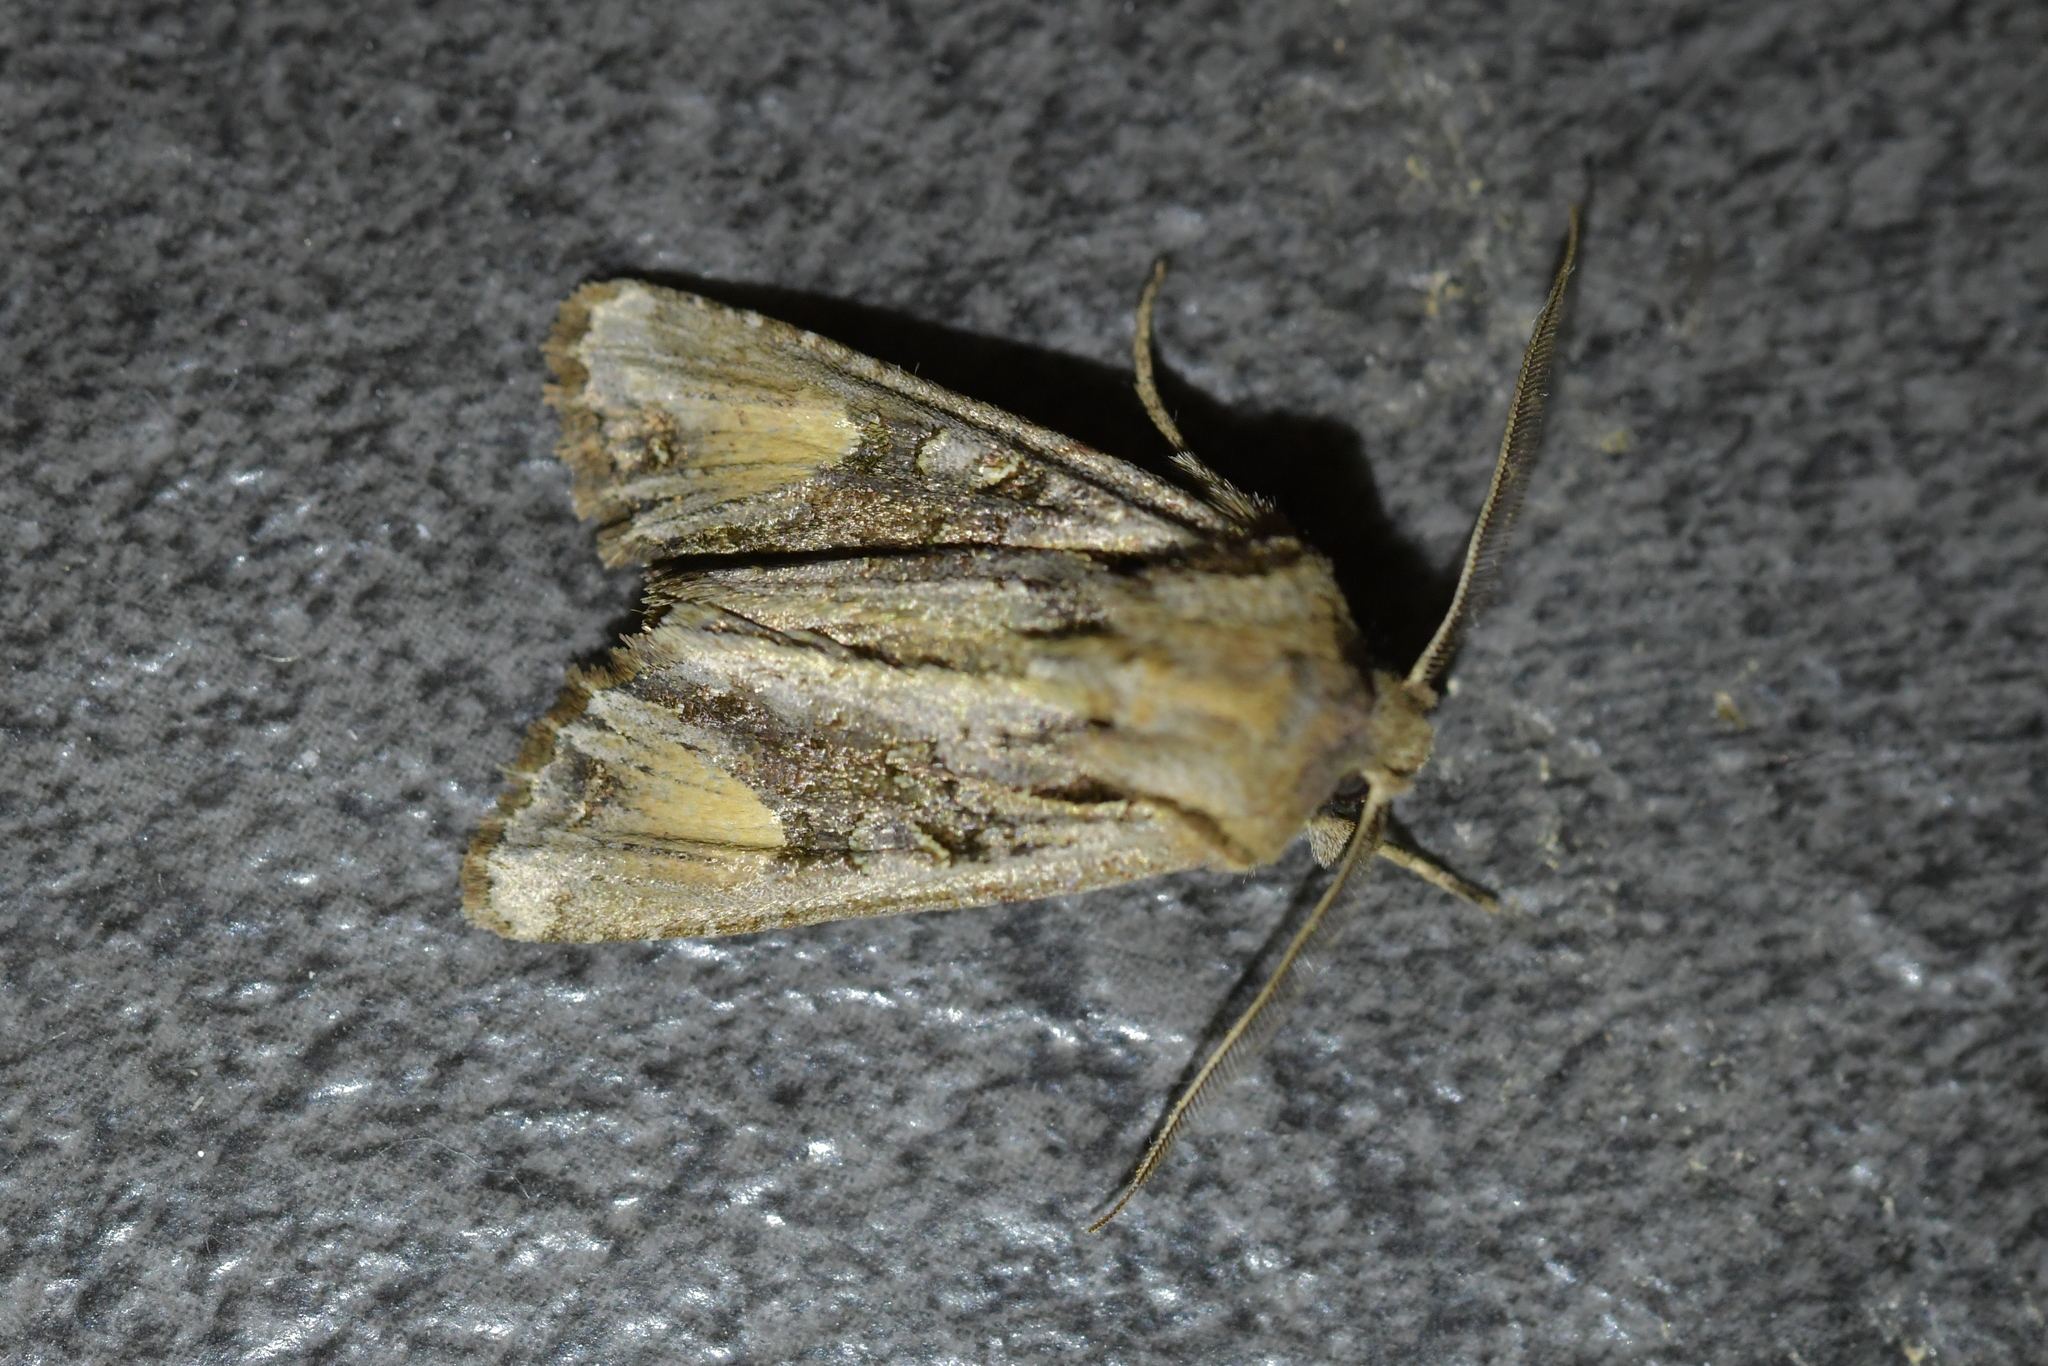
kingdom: Animalia
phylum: Arthropoda
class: Insecta
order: Lepidoptera
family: Noctuidae
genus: Ichneutica
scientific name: Ichneutica
